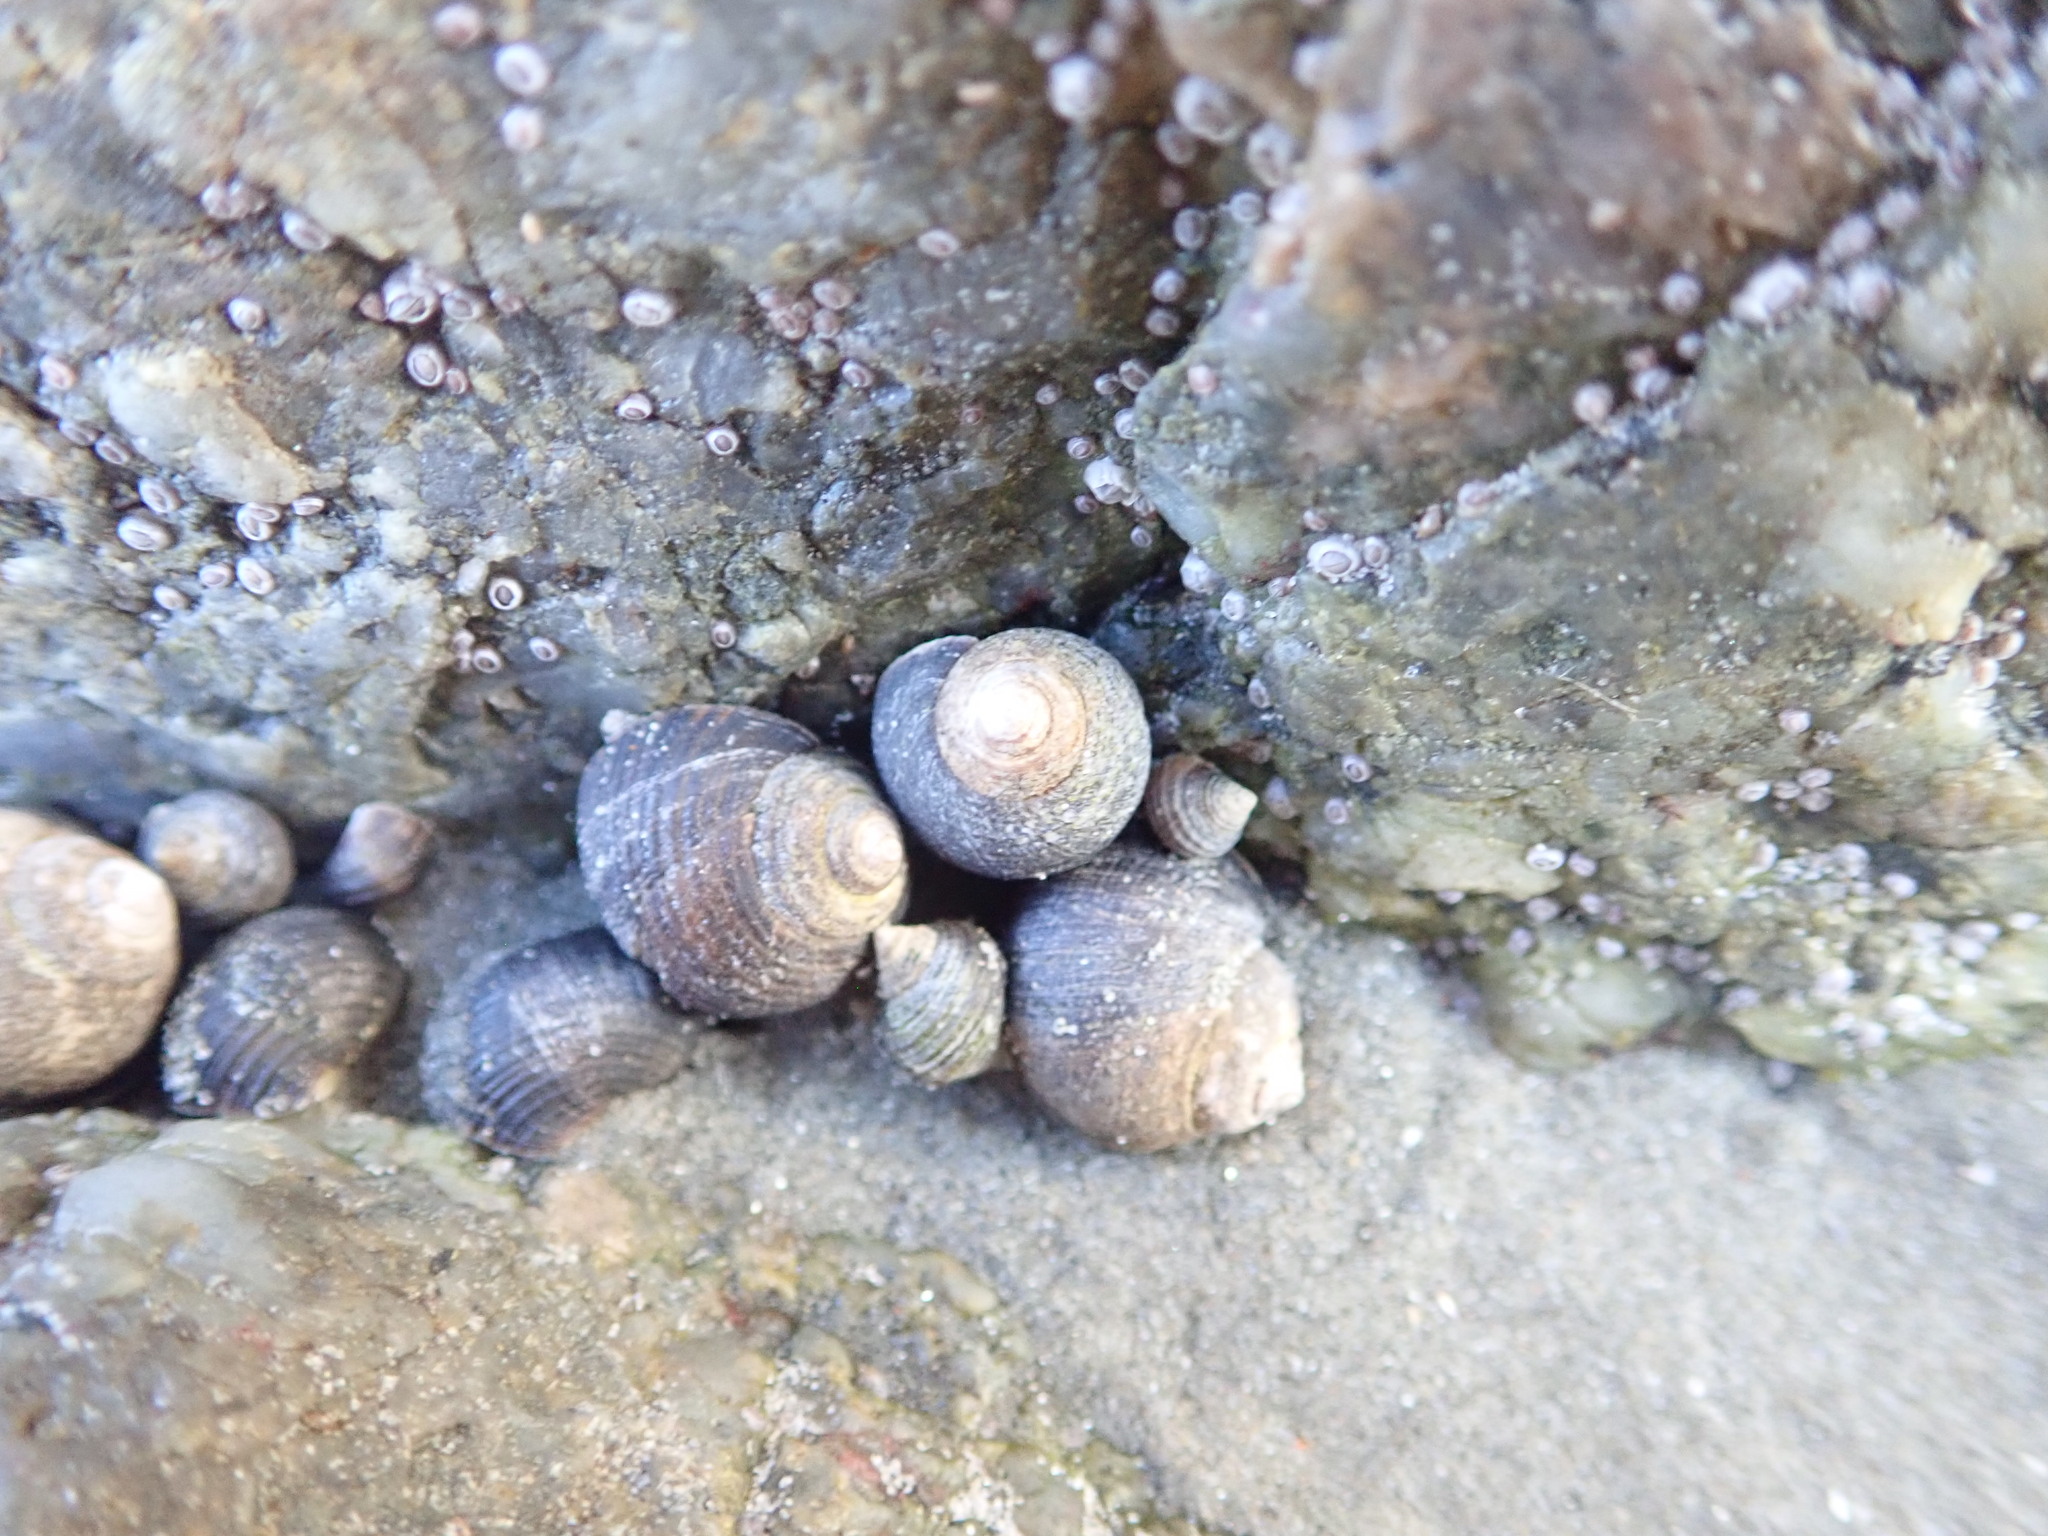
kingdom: Animalia
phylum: Mollusca
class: Gastropoda
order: Littorinimorpha
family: Littorinidae
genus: Littorina
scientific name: Littorina littorea
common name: Common periwinkle
